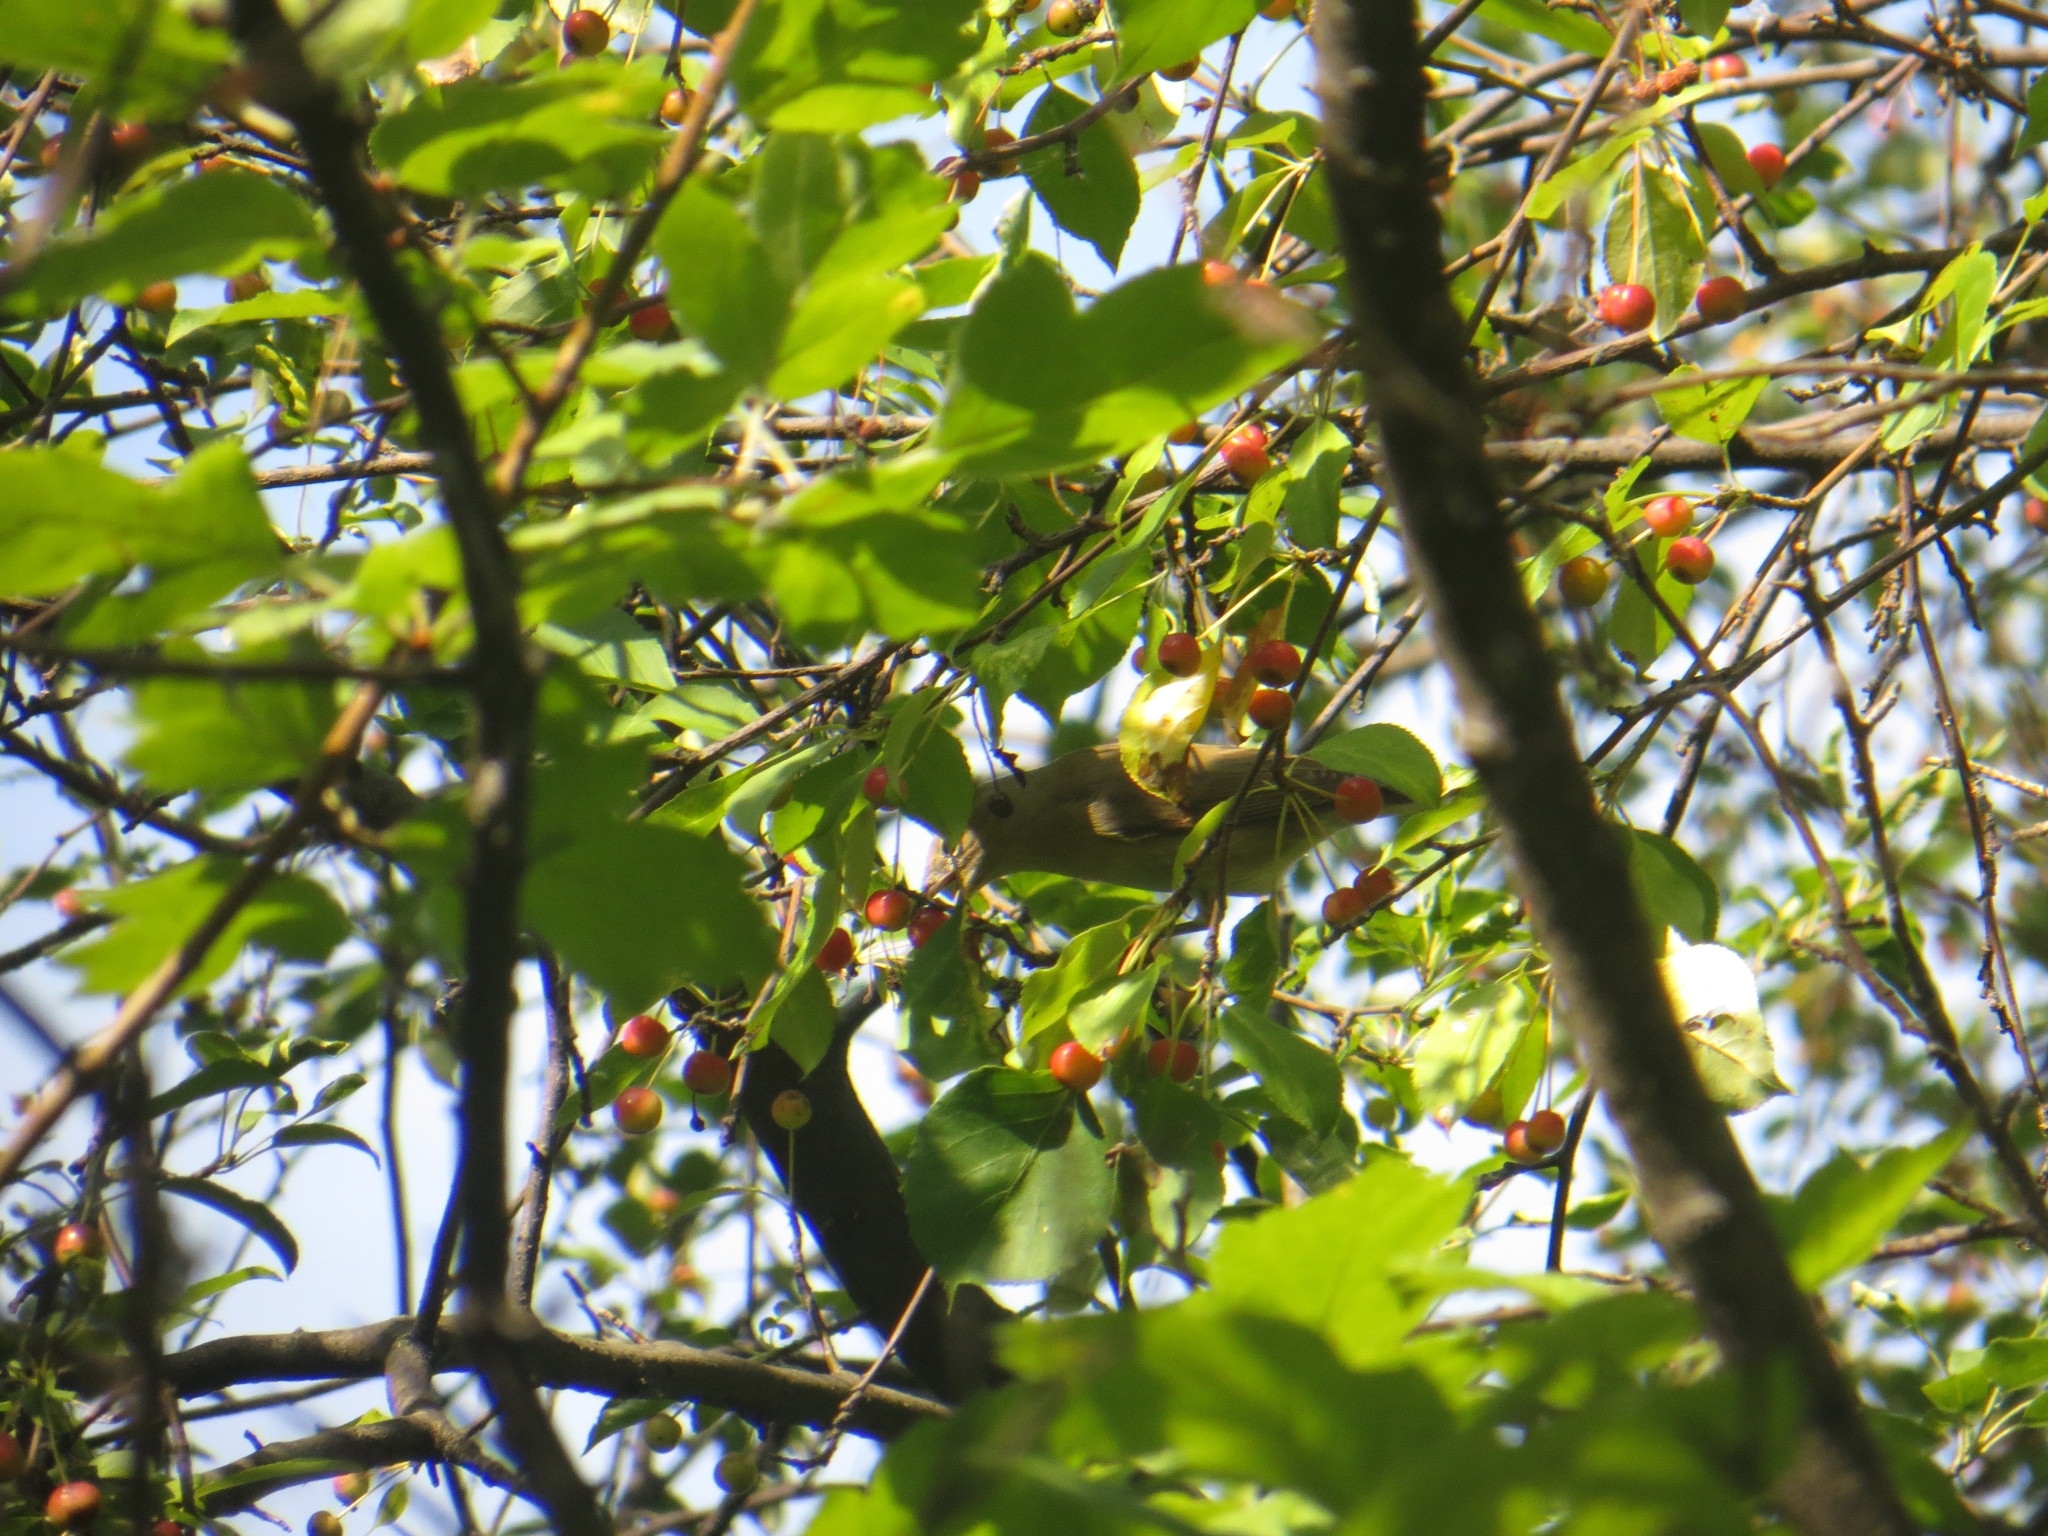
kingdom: Animalia
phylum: Chordata
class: Aves
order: Passeriformes
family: Sylviidae
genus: Sylvia
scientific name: Sylvia borin
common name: Garden warbler
